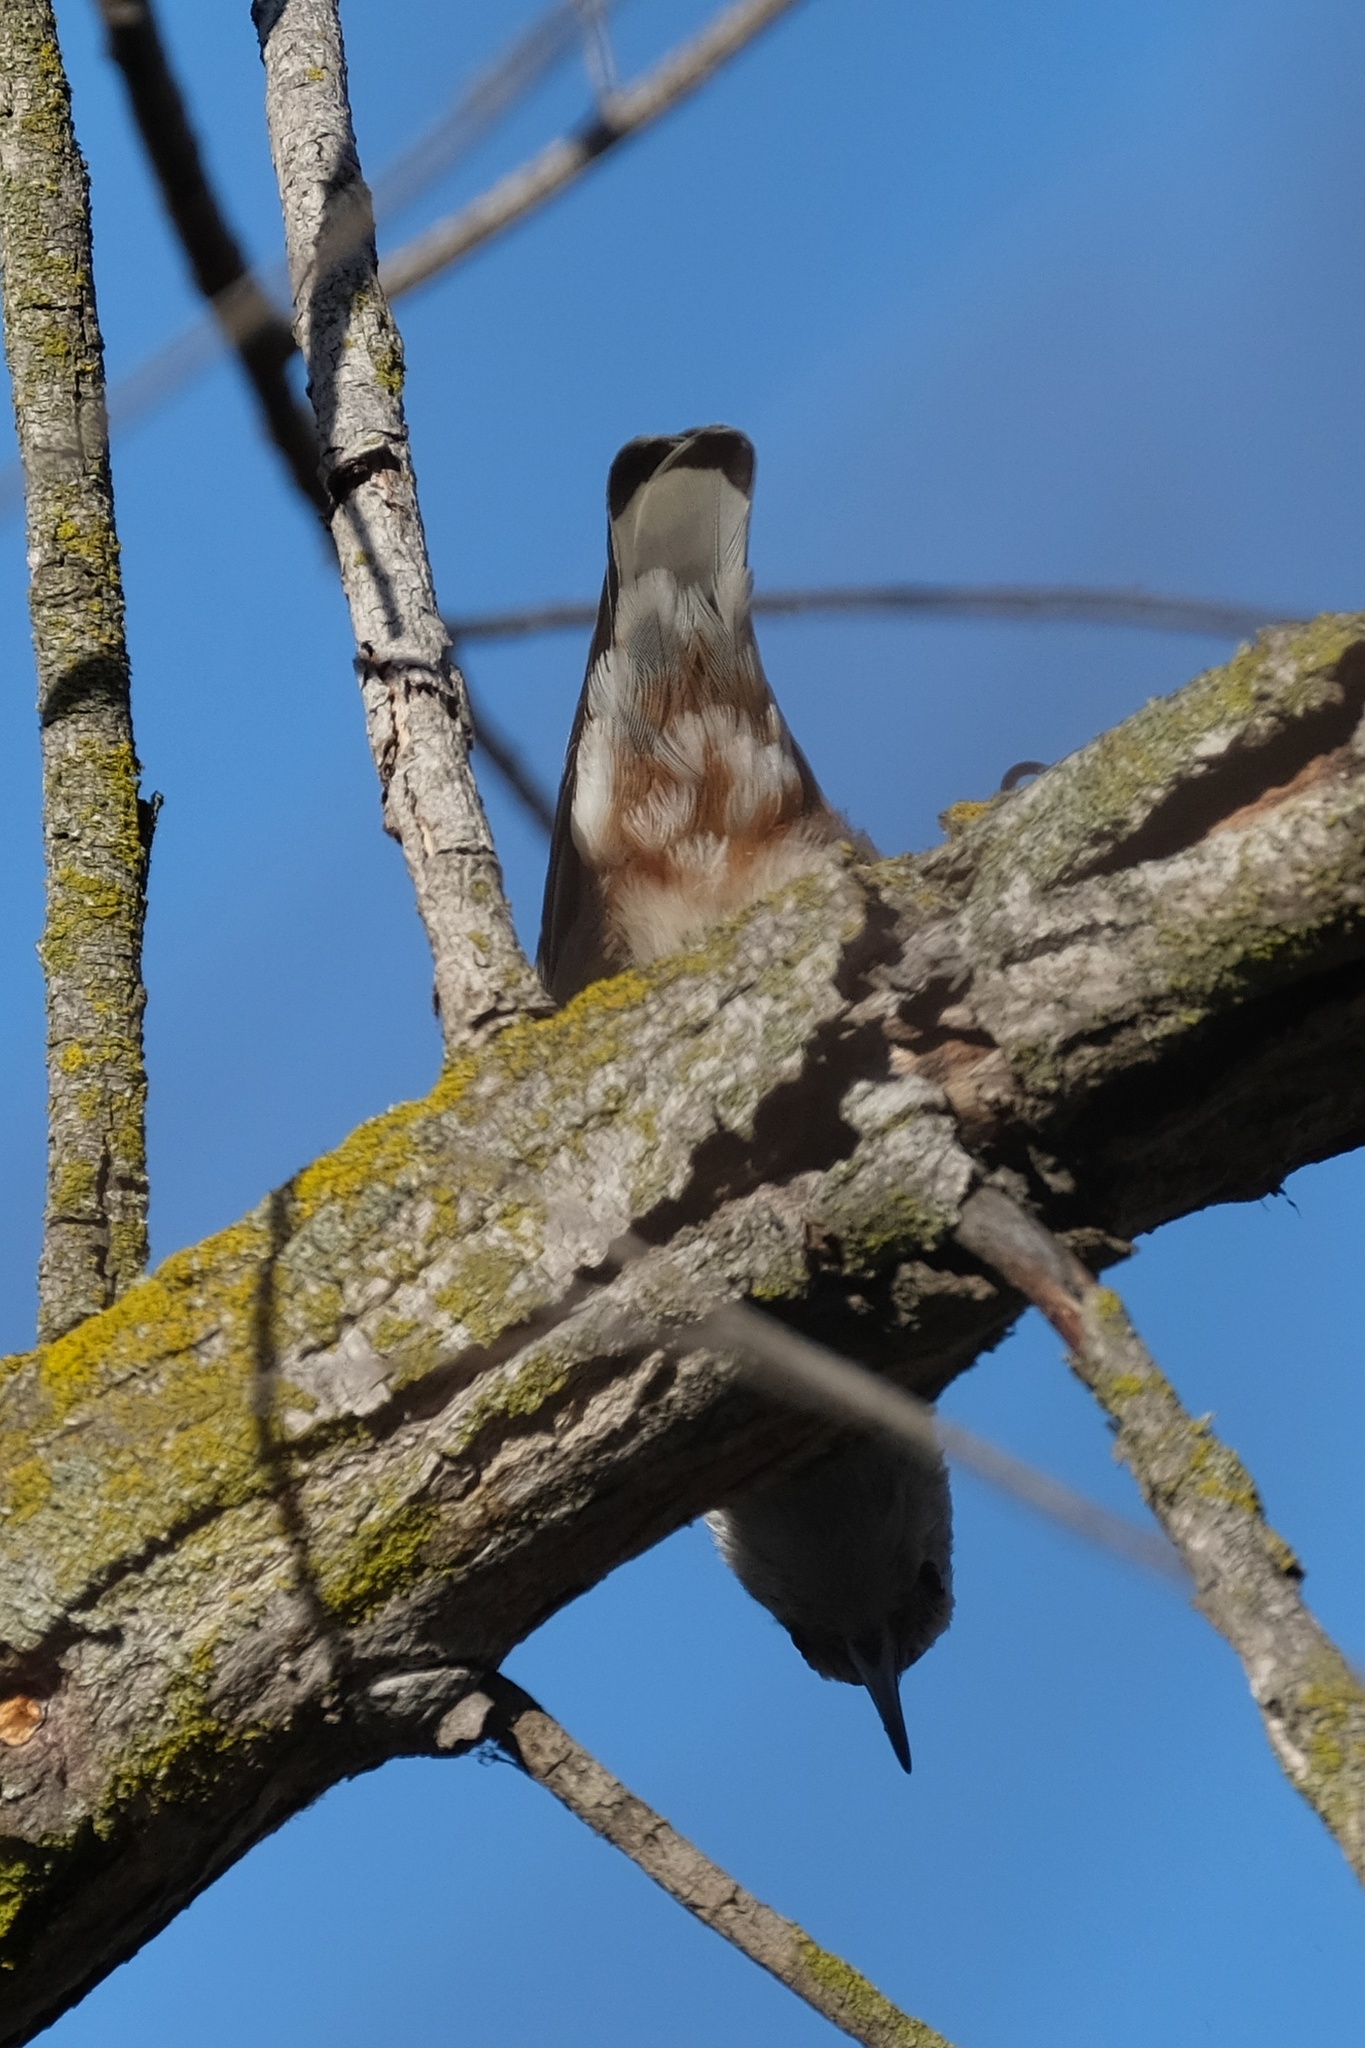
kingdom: Animalia
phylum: Chordata
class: Aves
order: Passeriformes
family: Sittidae
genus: Sitta
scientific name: Sitta carolinensis
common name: White-breasted nuthatch
